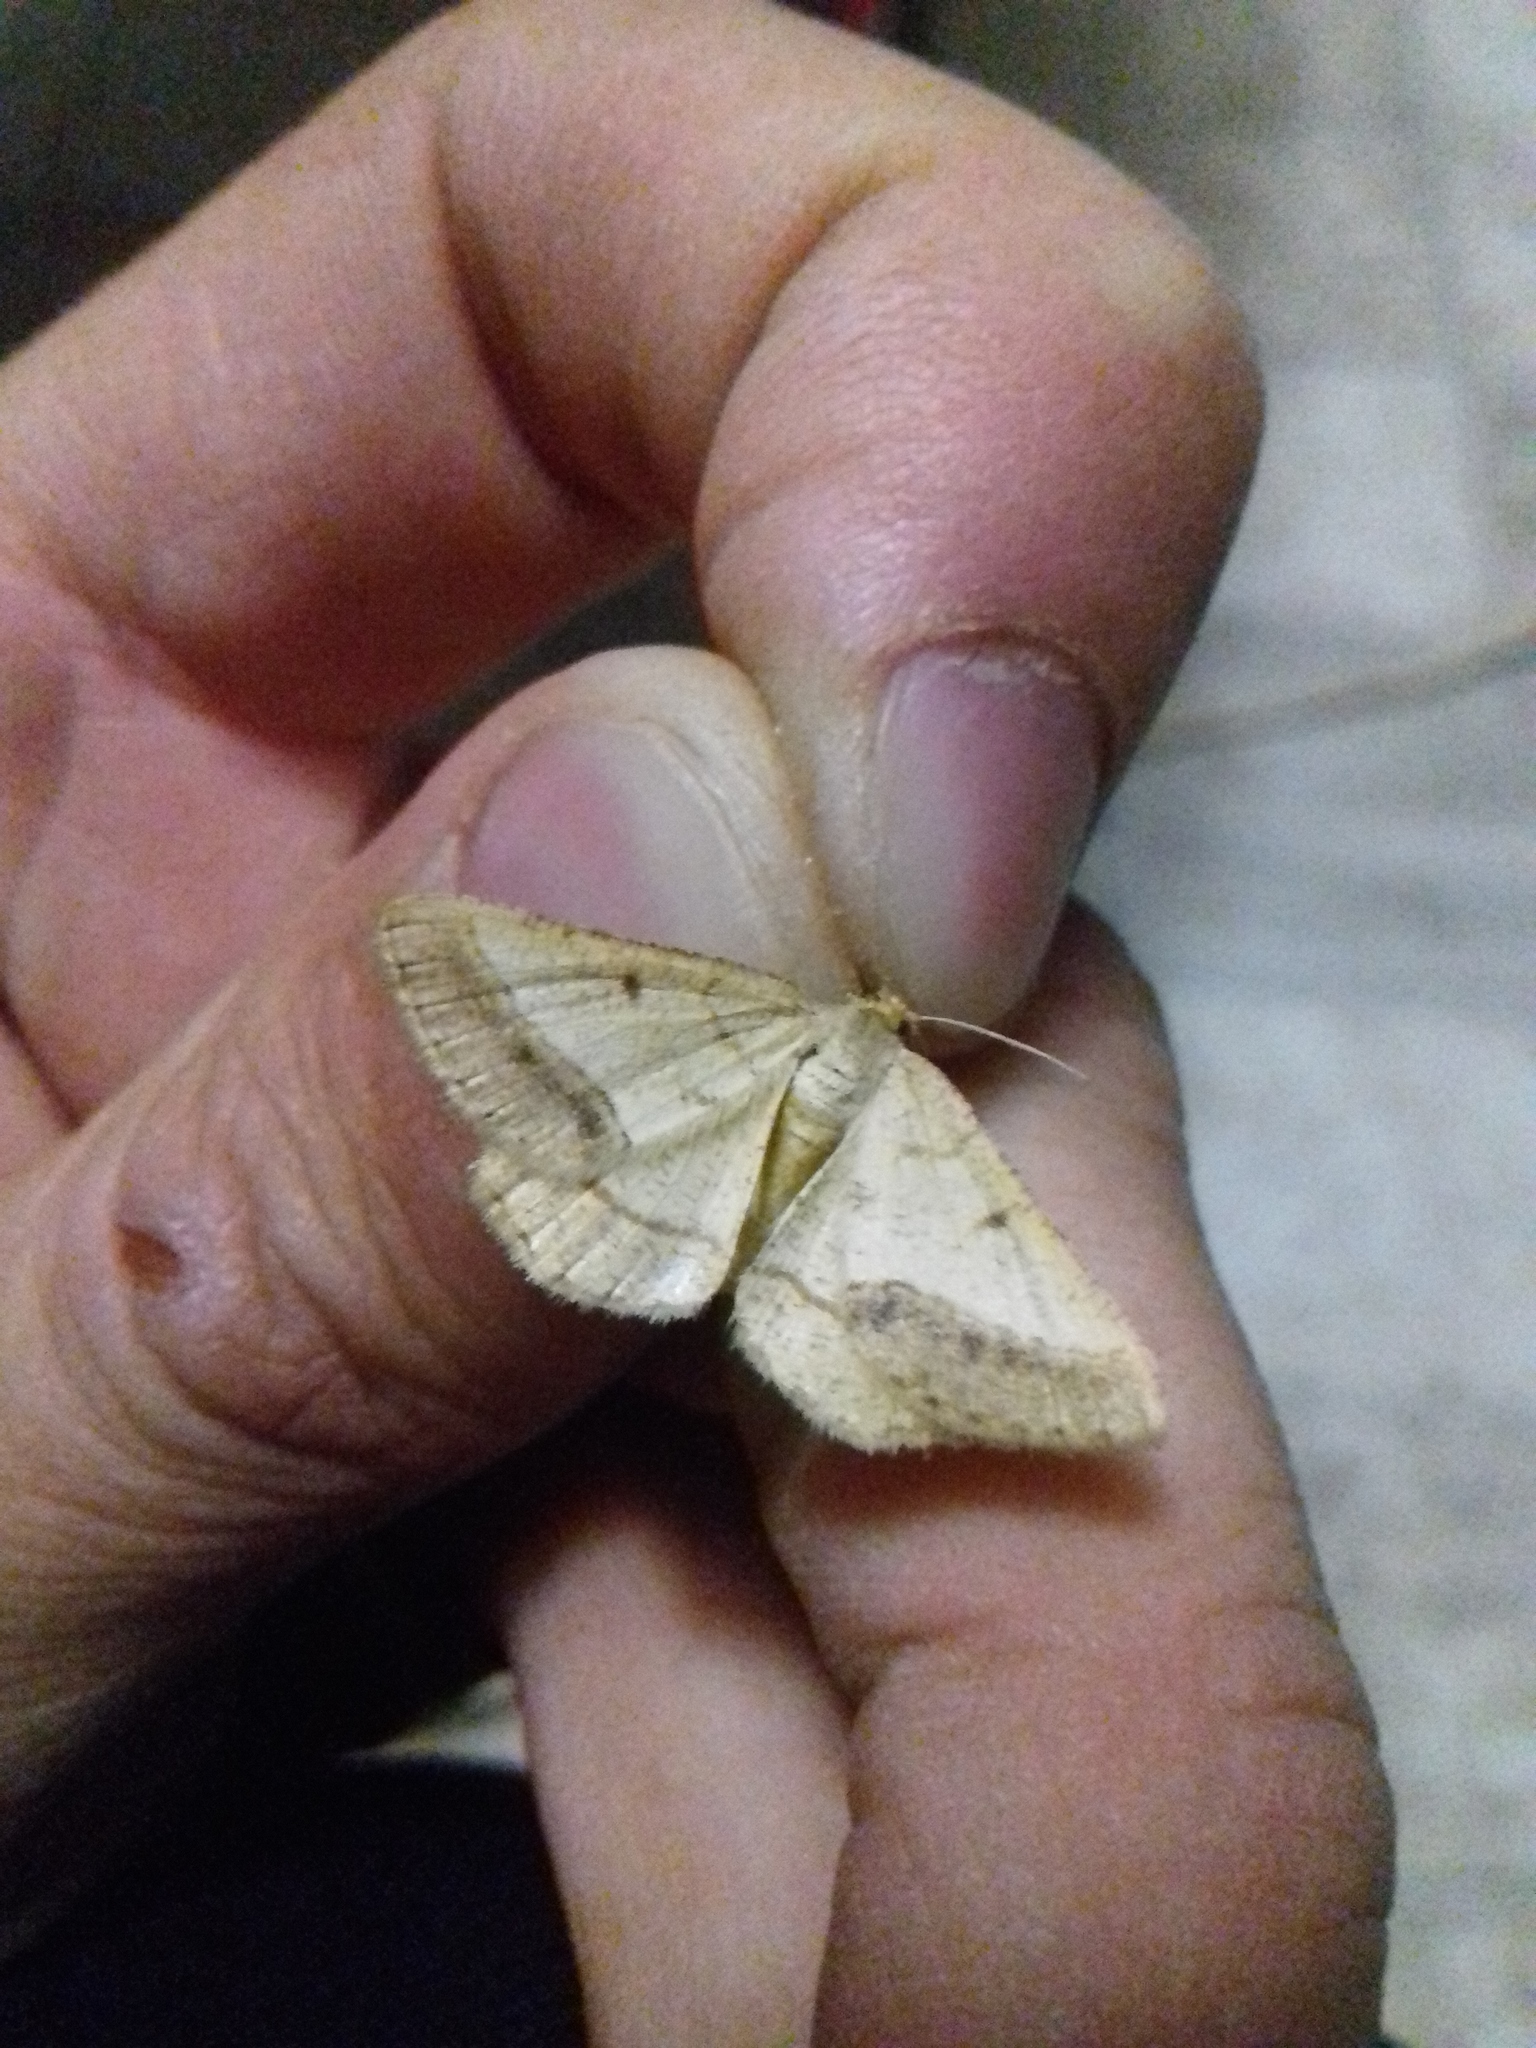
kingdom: Animalia
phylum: Arthropoda
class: Insecta
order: Lepidoptera
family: Geometridae
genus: Tephrina
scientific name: Tephrina arenacearia
